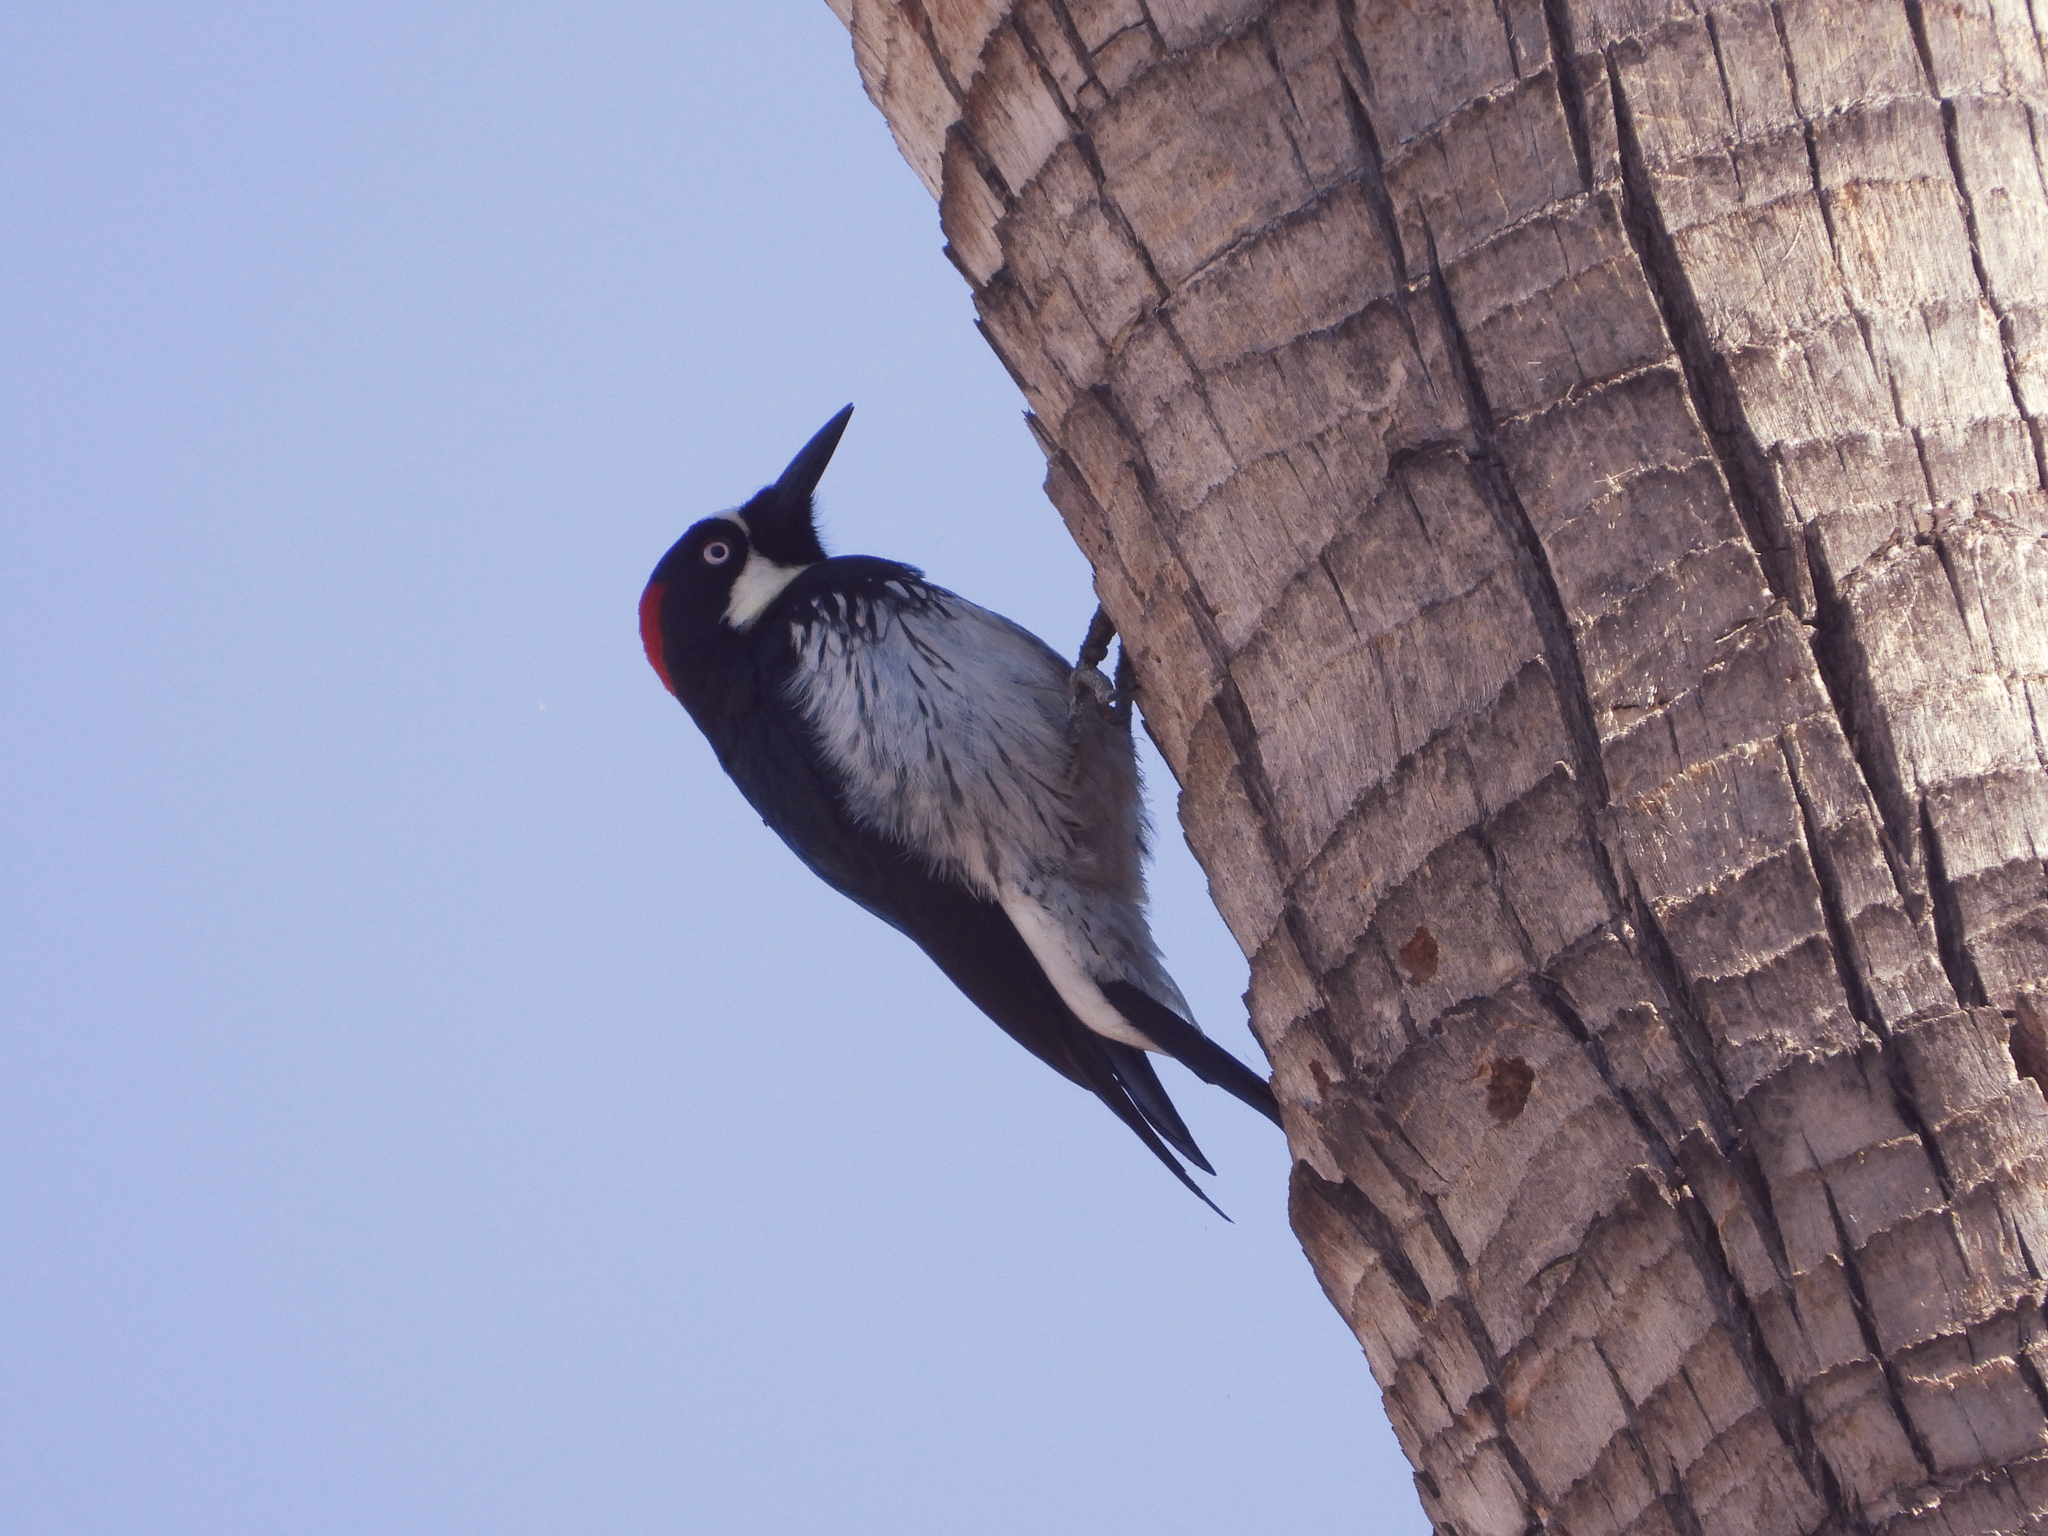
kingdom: Animalia
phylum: Chordata
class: Aves
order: Piciformes
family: Picidae
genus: Melanerpes
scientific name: Melanerpes formicivorus
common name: Acorn woodpecker
